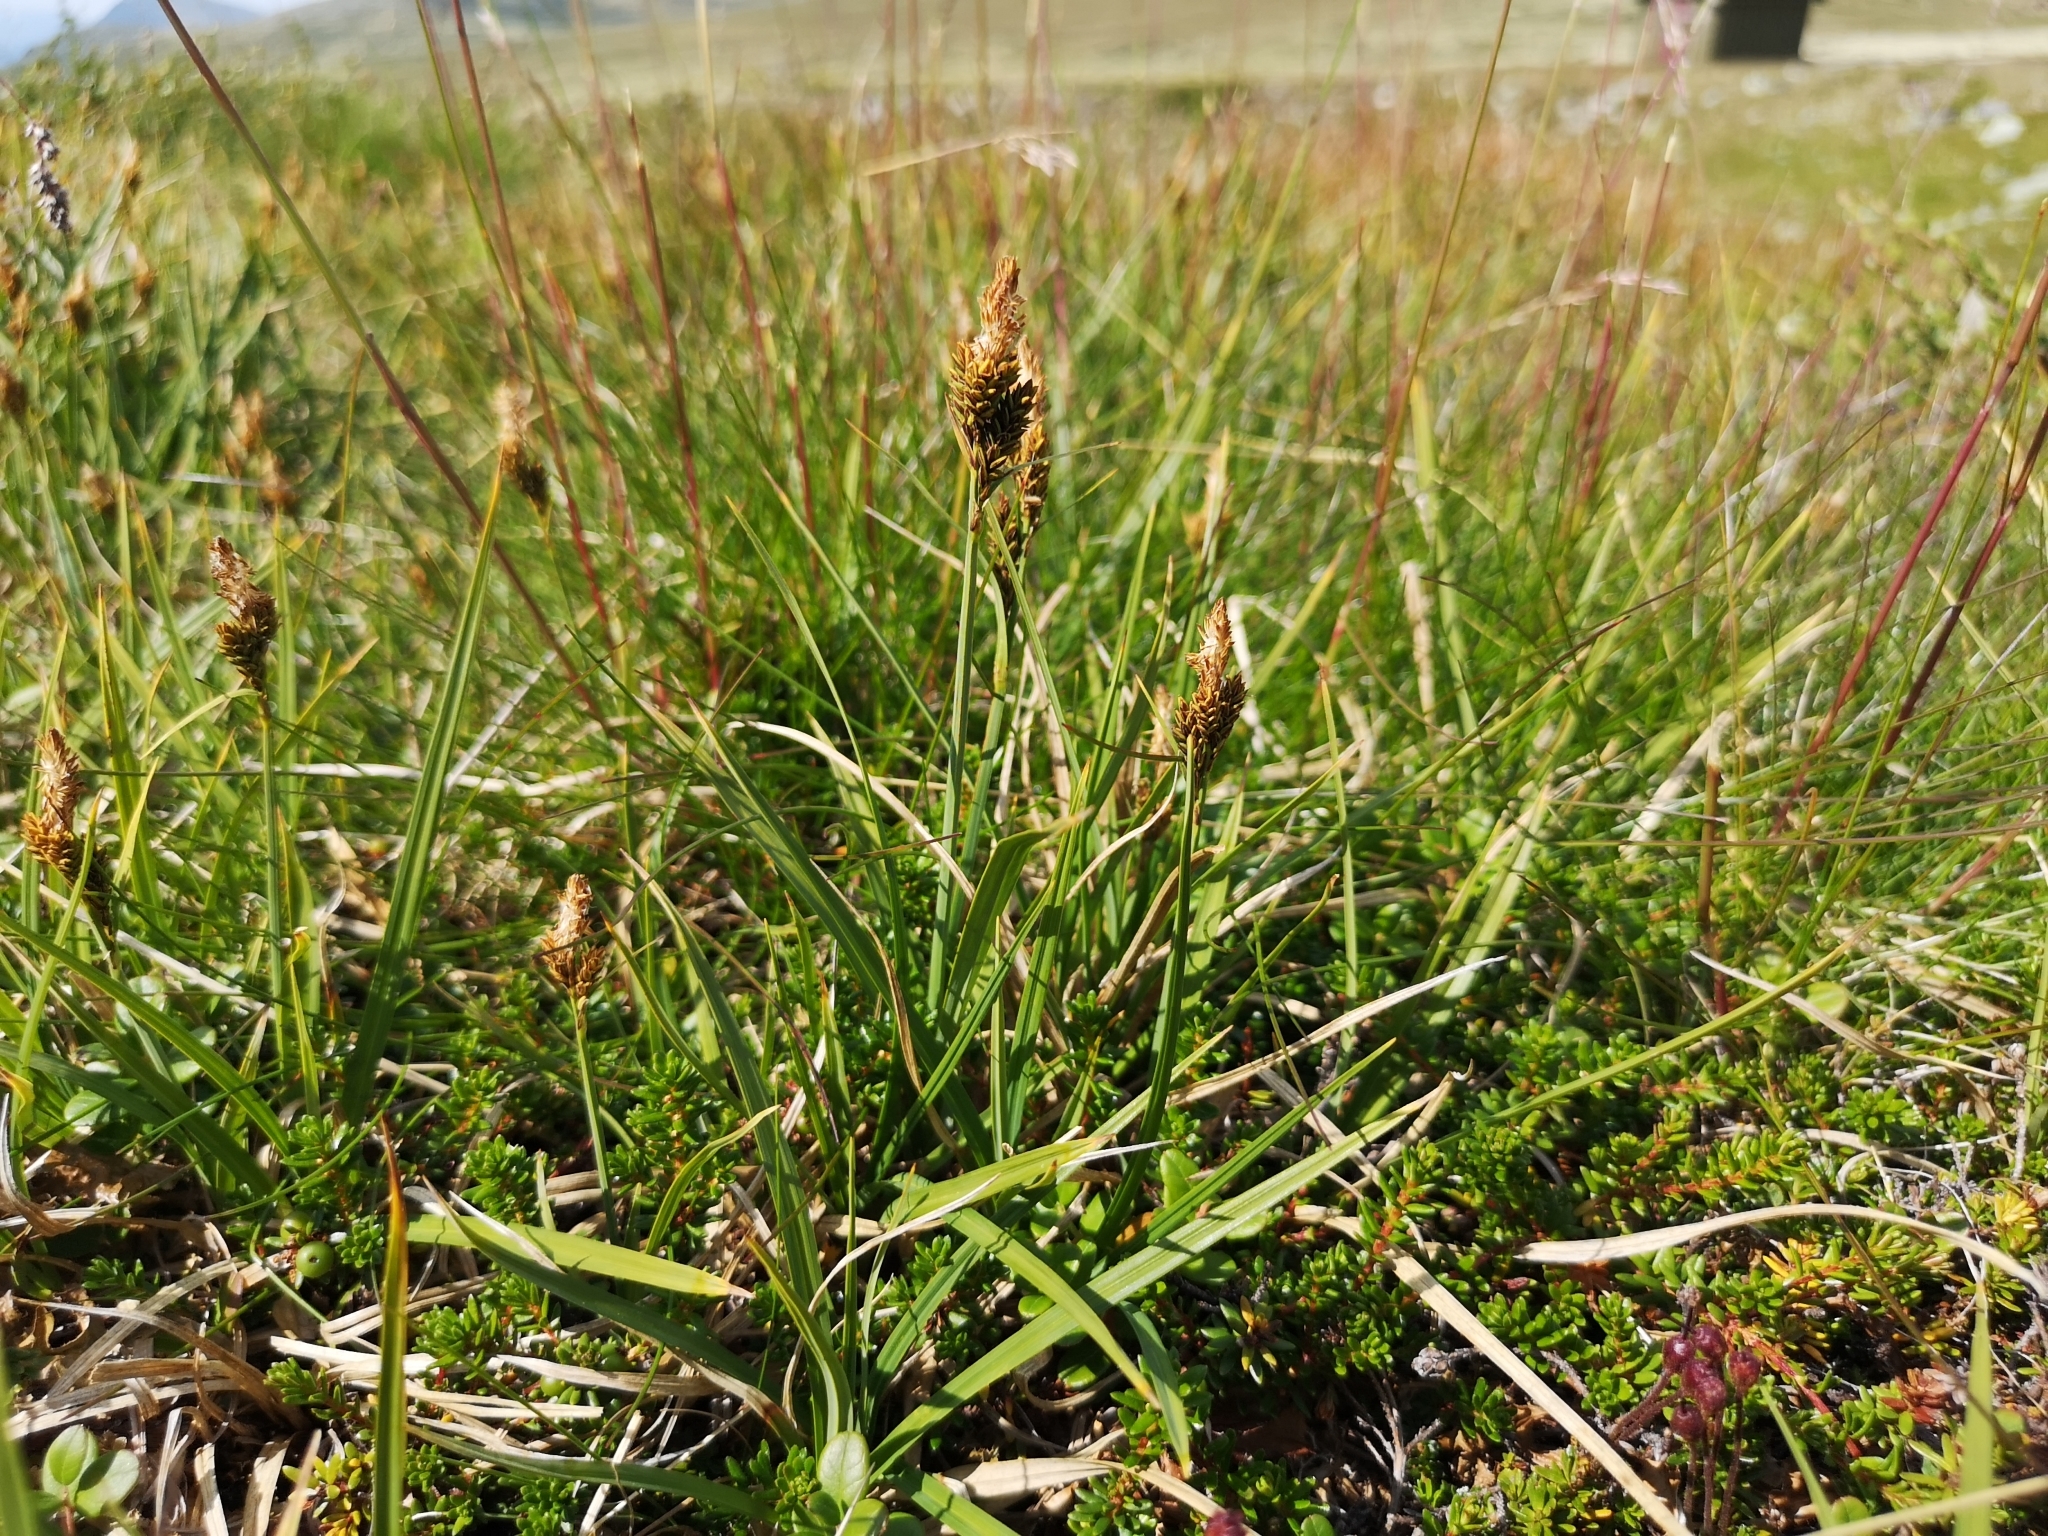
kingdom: Plantae
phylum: Tracheophyta
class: Liliopsida
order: Poales
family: Cyperaceae
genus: Carex
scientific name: Carex bigelowii
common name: Stiff sedge
